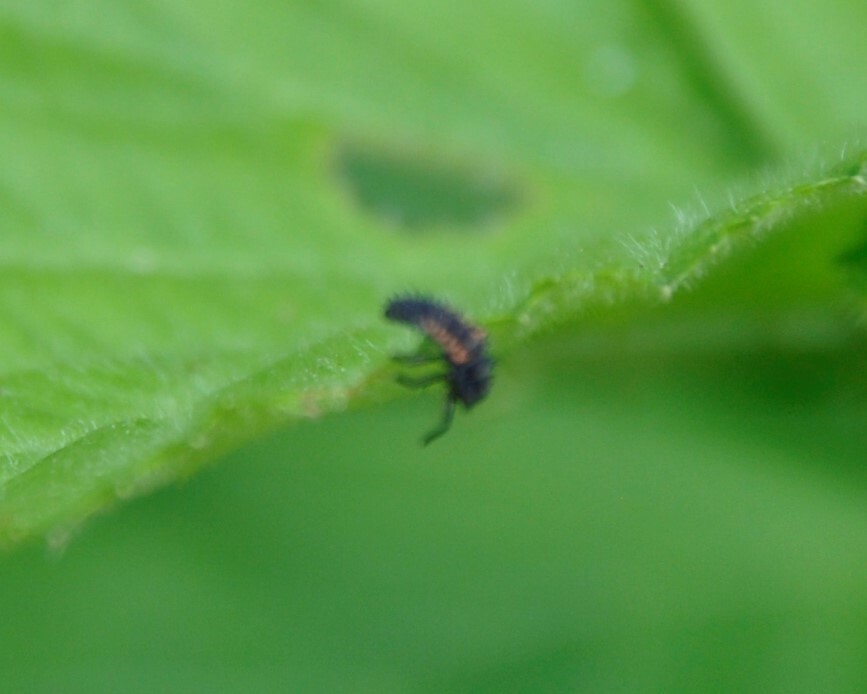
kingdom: Animalia
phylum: Arthropoda
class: Insecta
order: Coleoptera
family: Coccinellidae
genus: Harmonia
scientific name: Harmonia axyridis
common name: Harlequin ladybird
